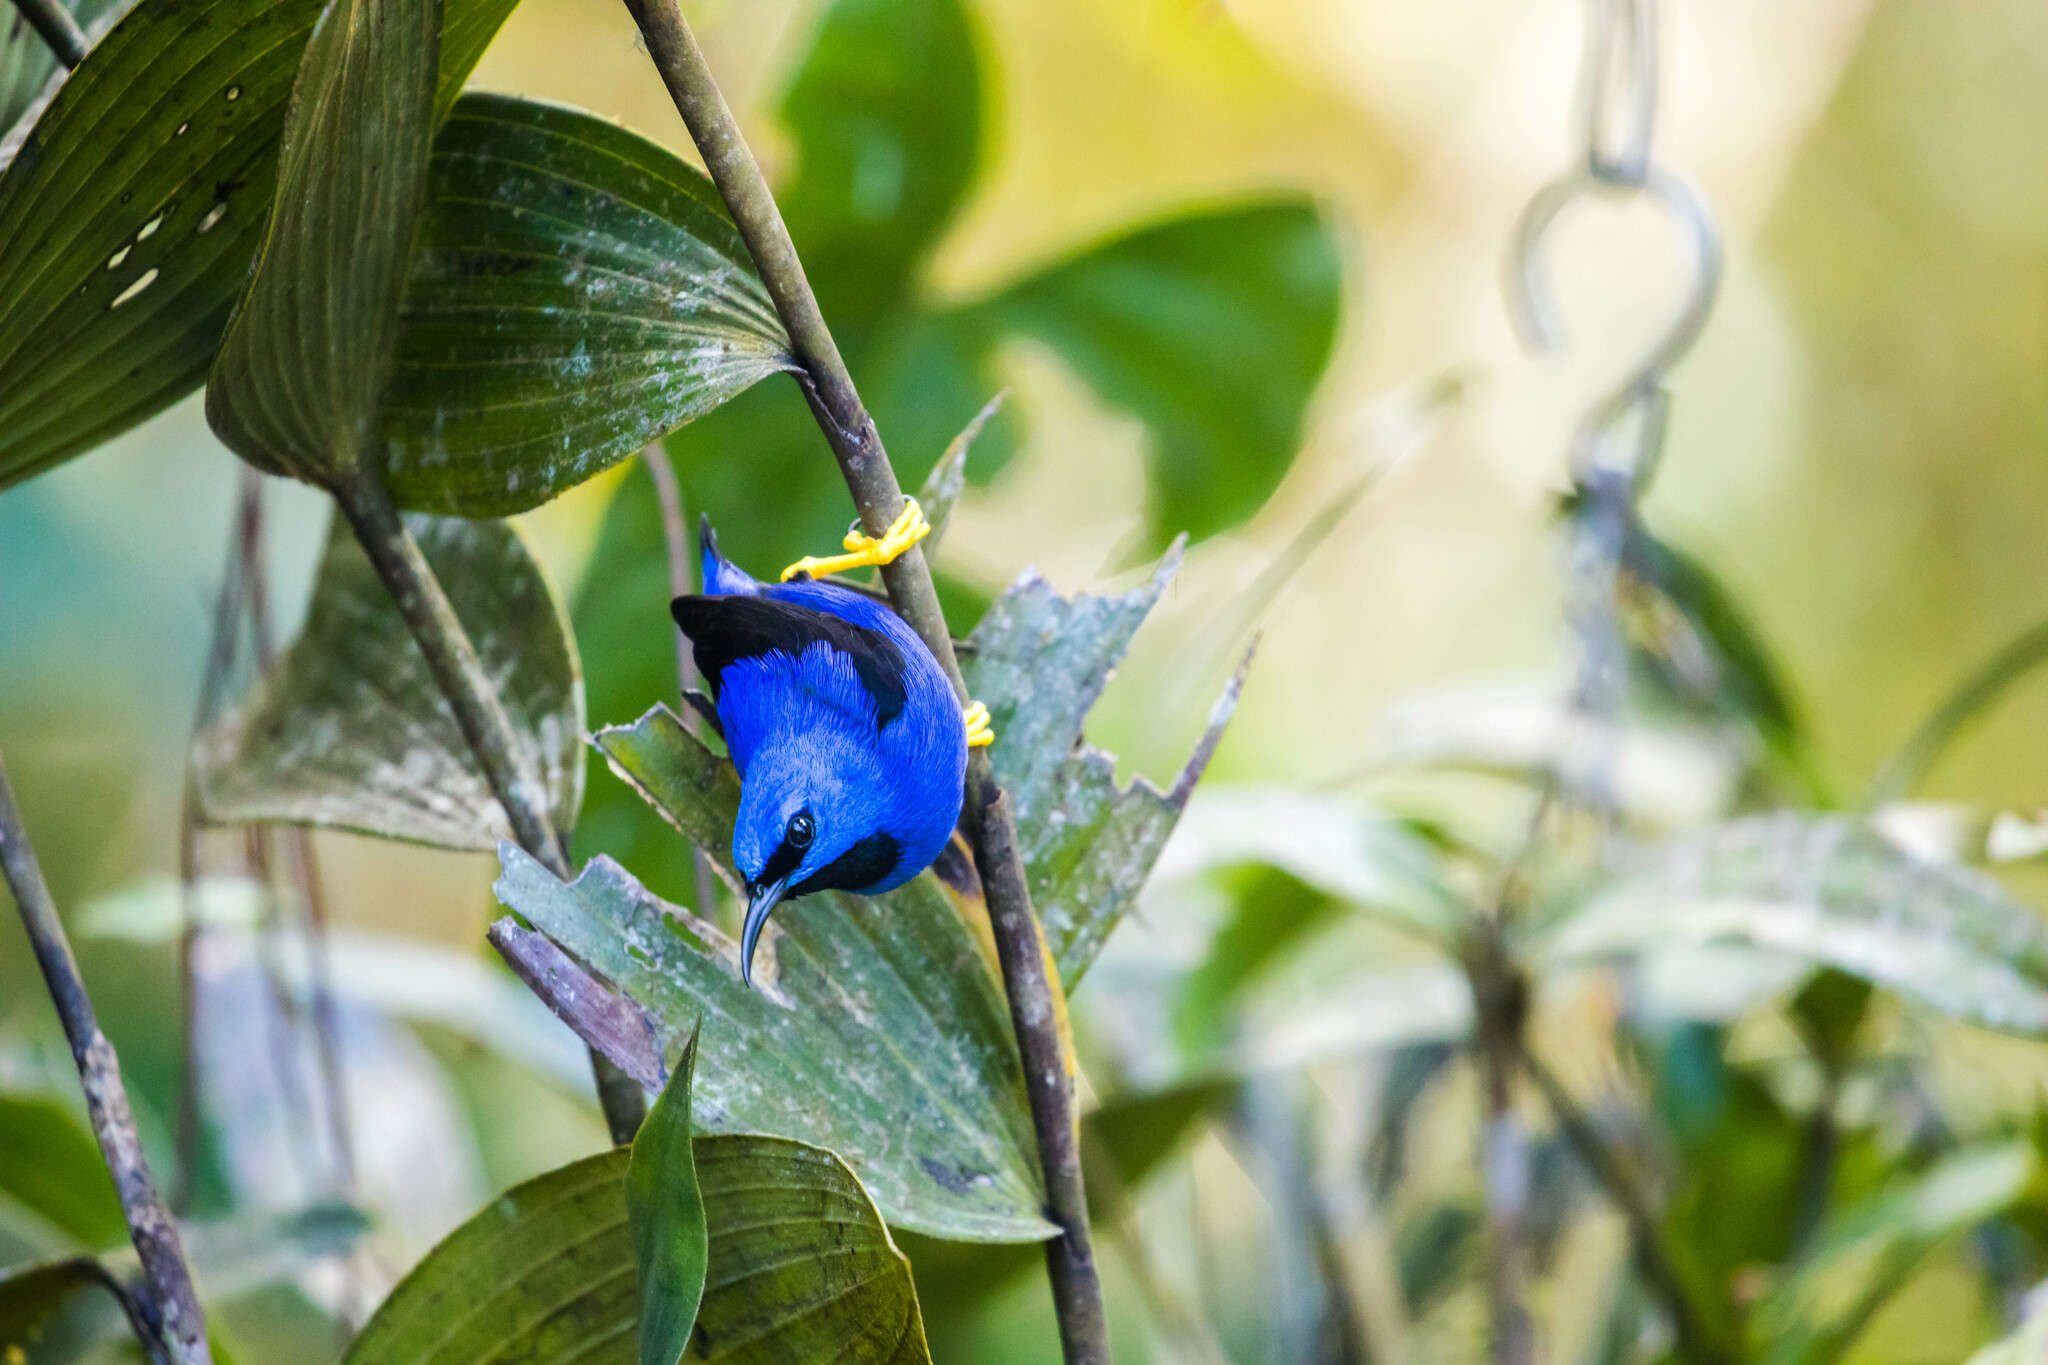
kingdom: Animalia
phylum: Chordata
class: Aves
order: Passeriformes
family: Thraupidae
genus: Cyanerpes
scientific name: Cyanerpes lucidus
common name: Shining honeycreeper
